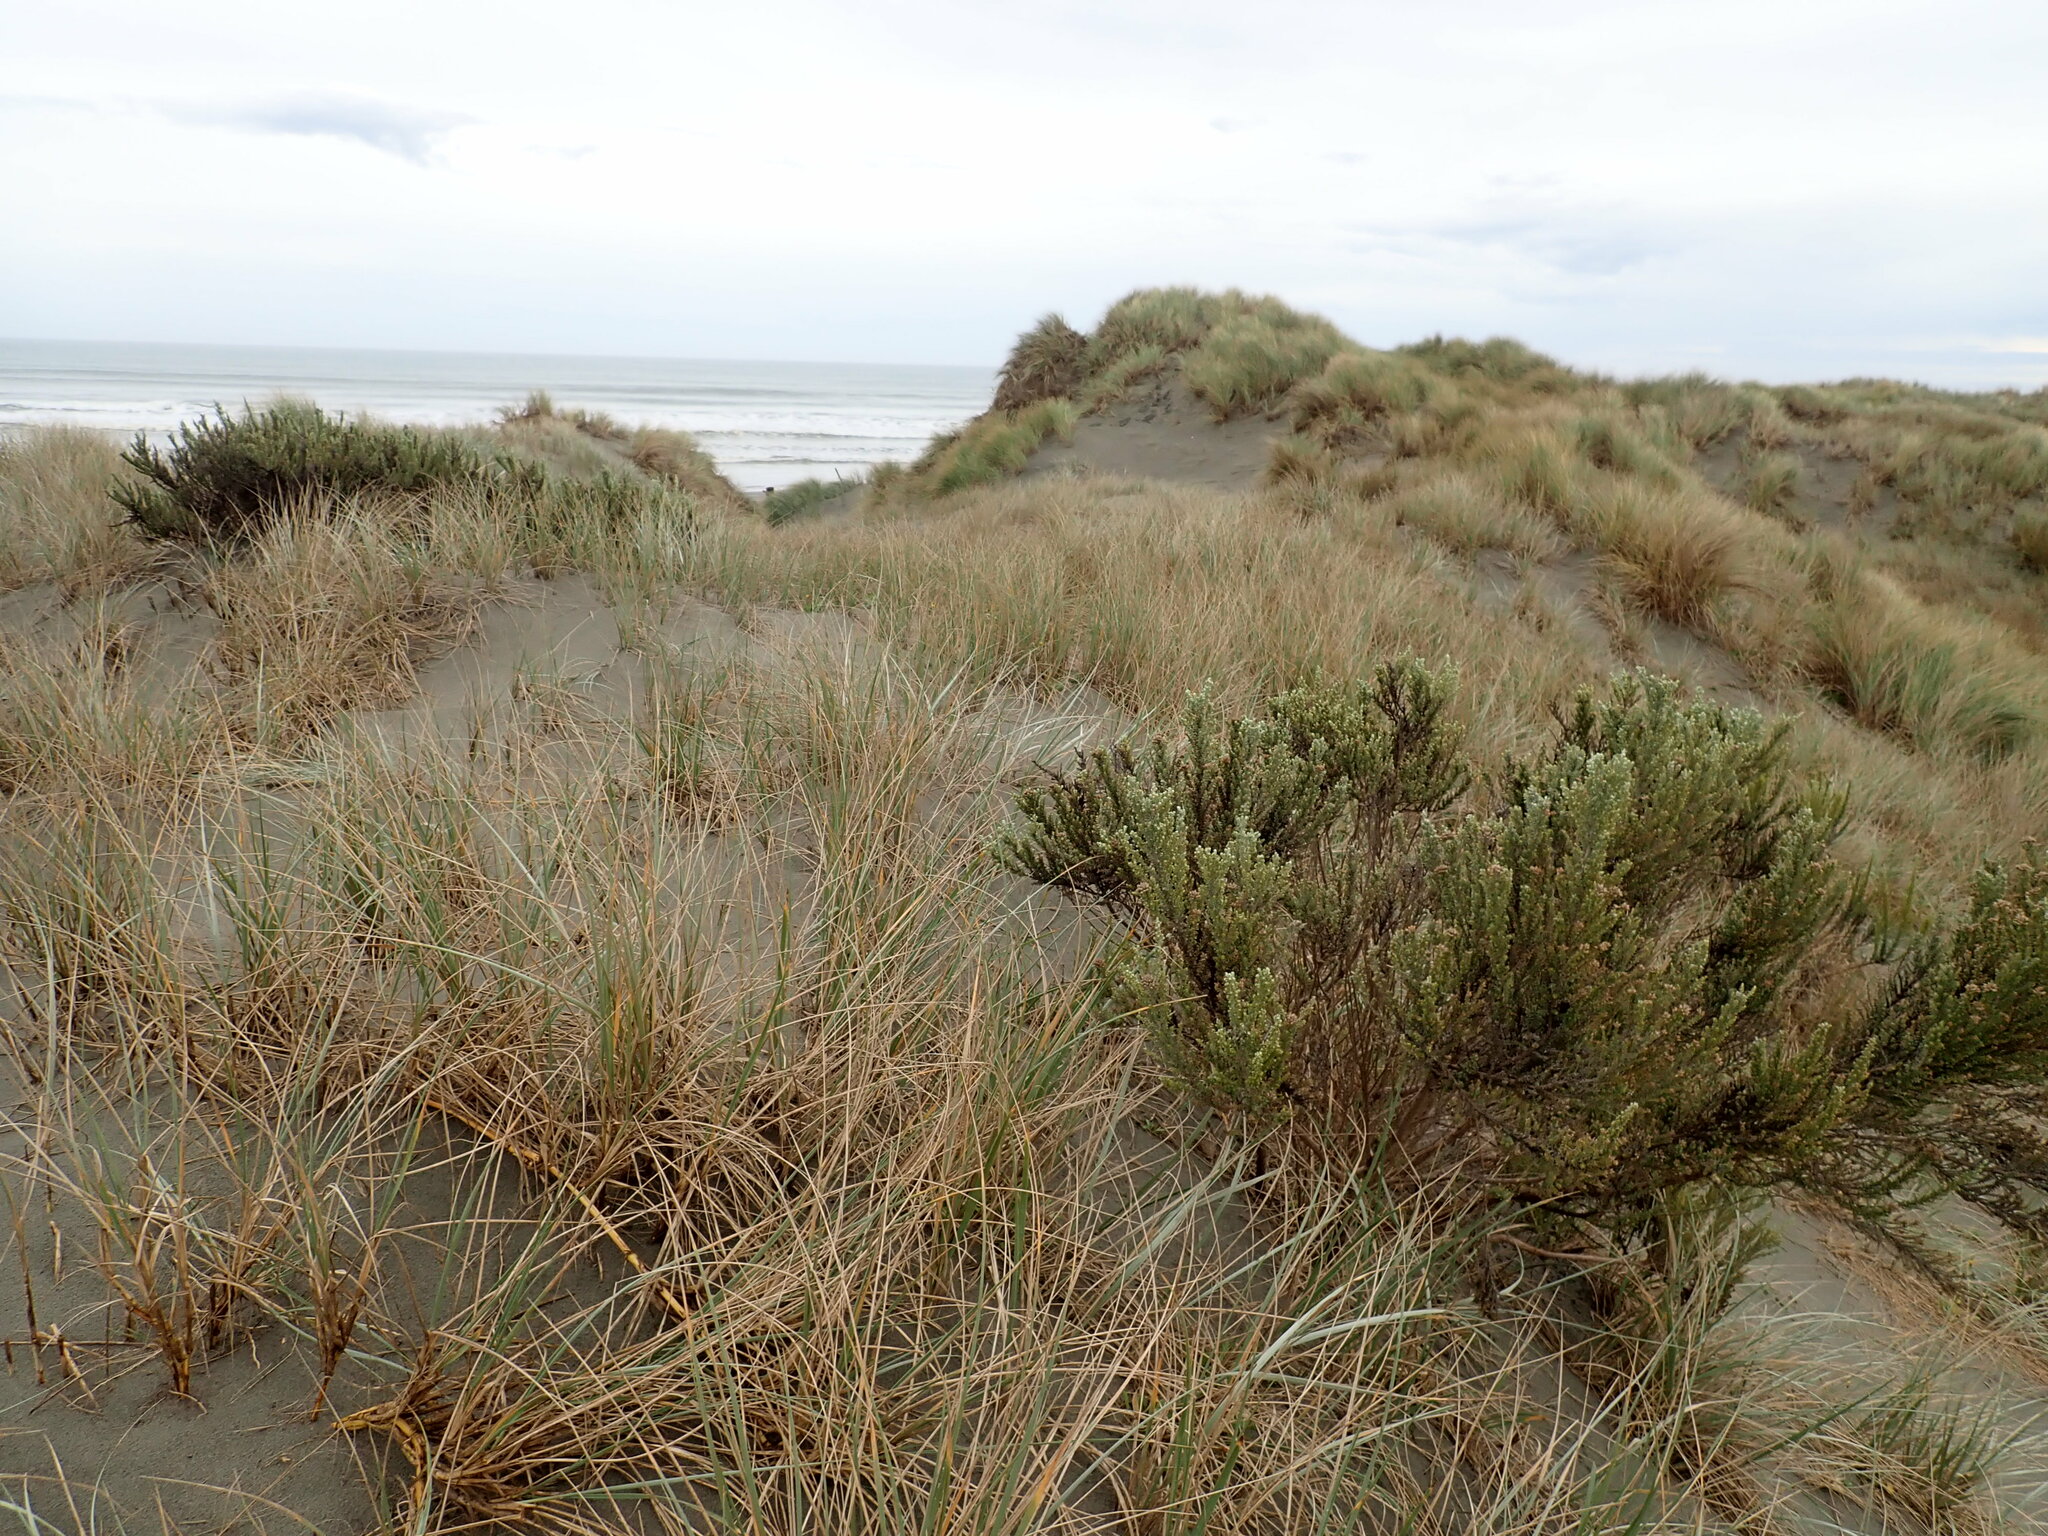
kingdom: Plantae
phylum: Tracheophyta
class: Magnoliopsida
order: Asterales
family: Asteraceae
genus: Ozothamnus
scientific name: Ozothamnus leptophyllus
